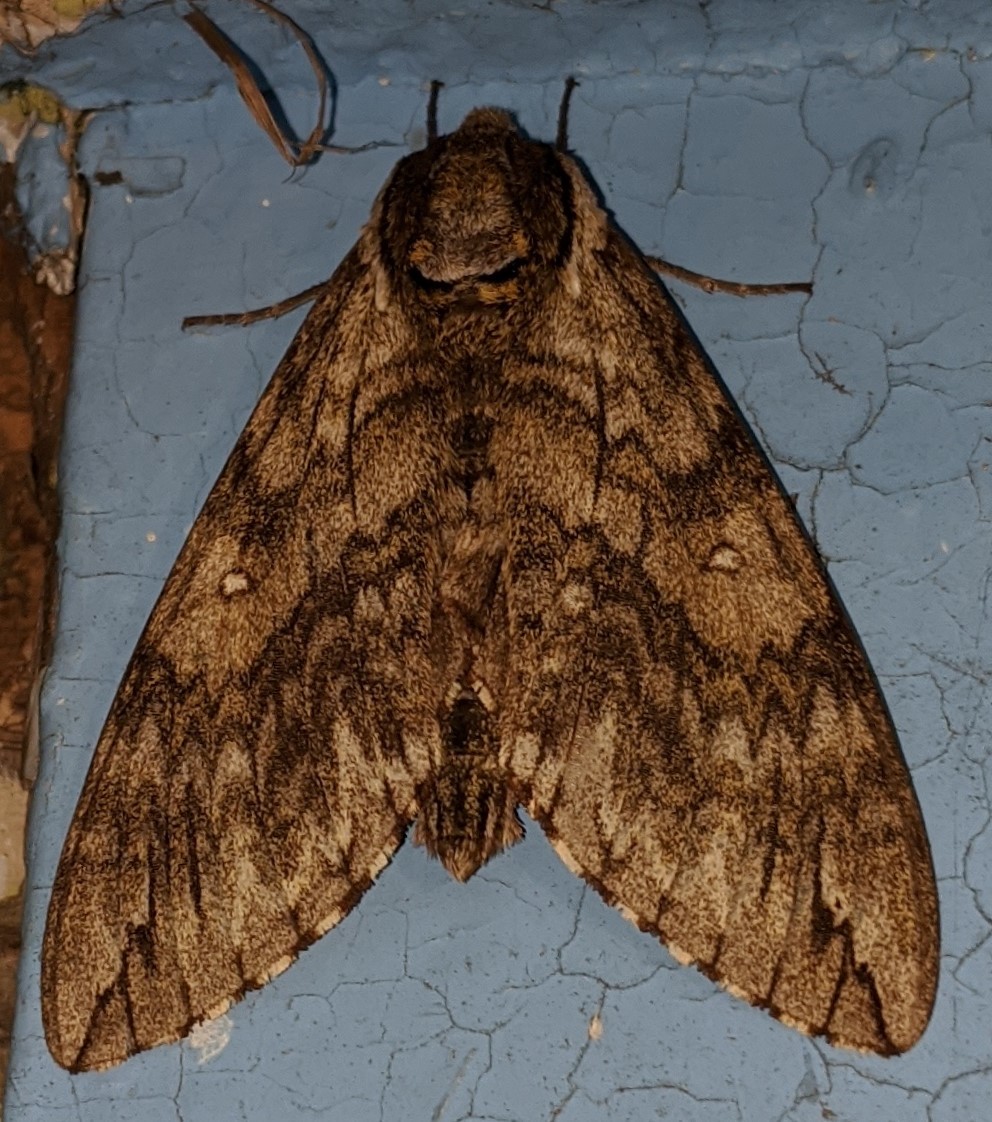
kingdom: Animalia
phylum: Arthropoda
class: Insecta
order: Lepidoptera
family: Sphingidae
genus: Ceratomia
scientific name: Ceratomia undulosa
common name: Waved sphinx
